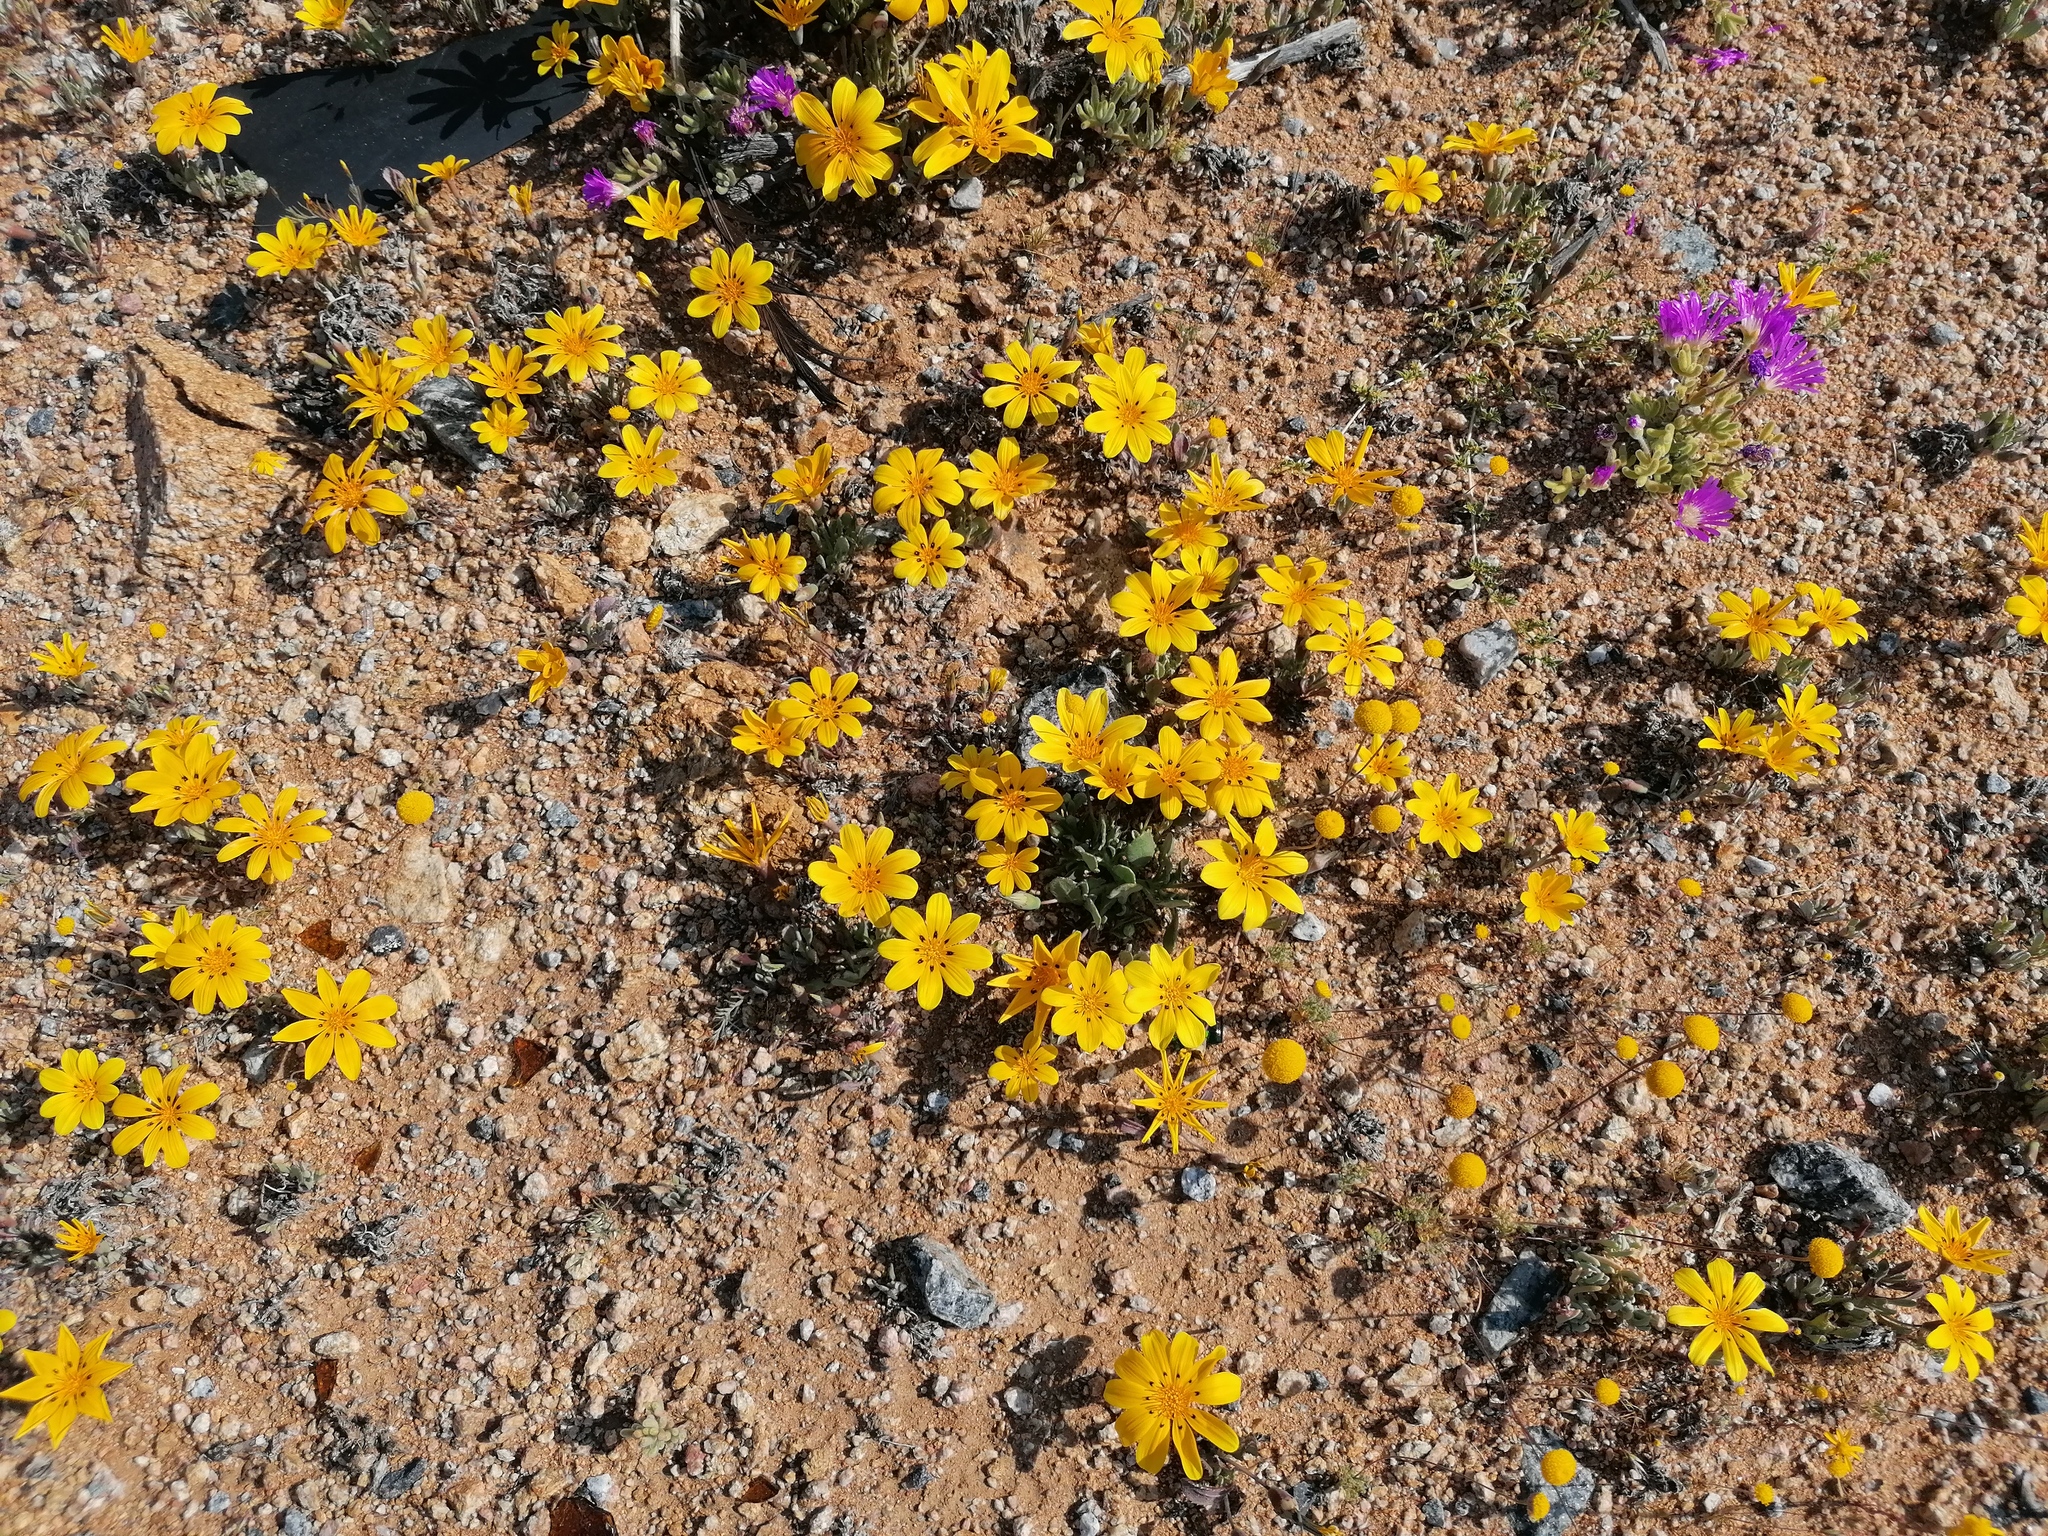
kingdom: Plantae
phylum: Tracheophyta
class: Magnoliopsida
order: Asterales
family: Asteraceae
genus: Gazania
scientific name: Gazania lichtensteinii
